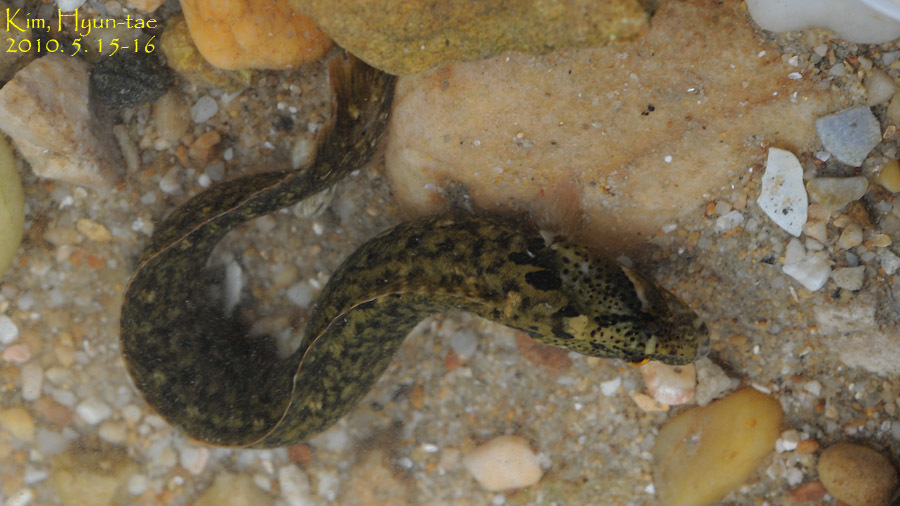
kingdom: Animalia
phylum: Chordata
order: Perciformes
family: Stichaeidae
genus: Dictyosoma
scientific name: Dictyosoma burgeri
